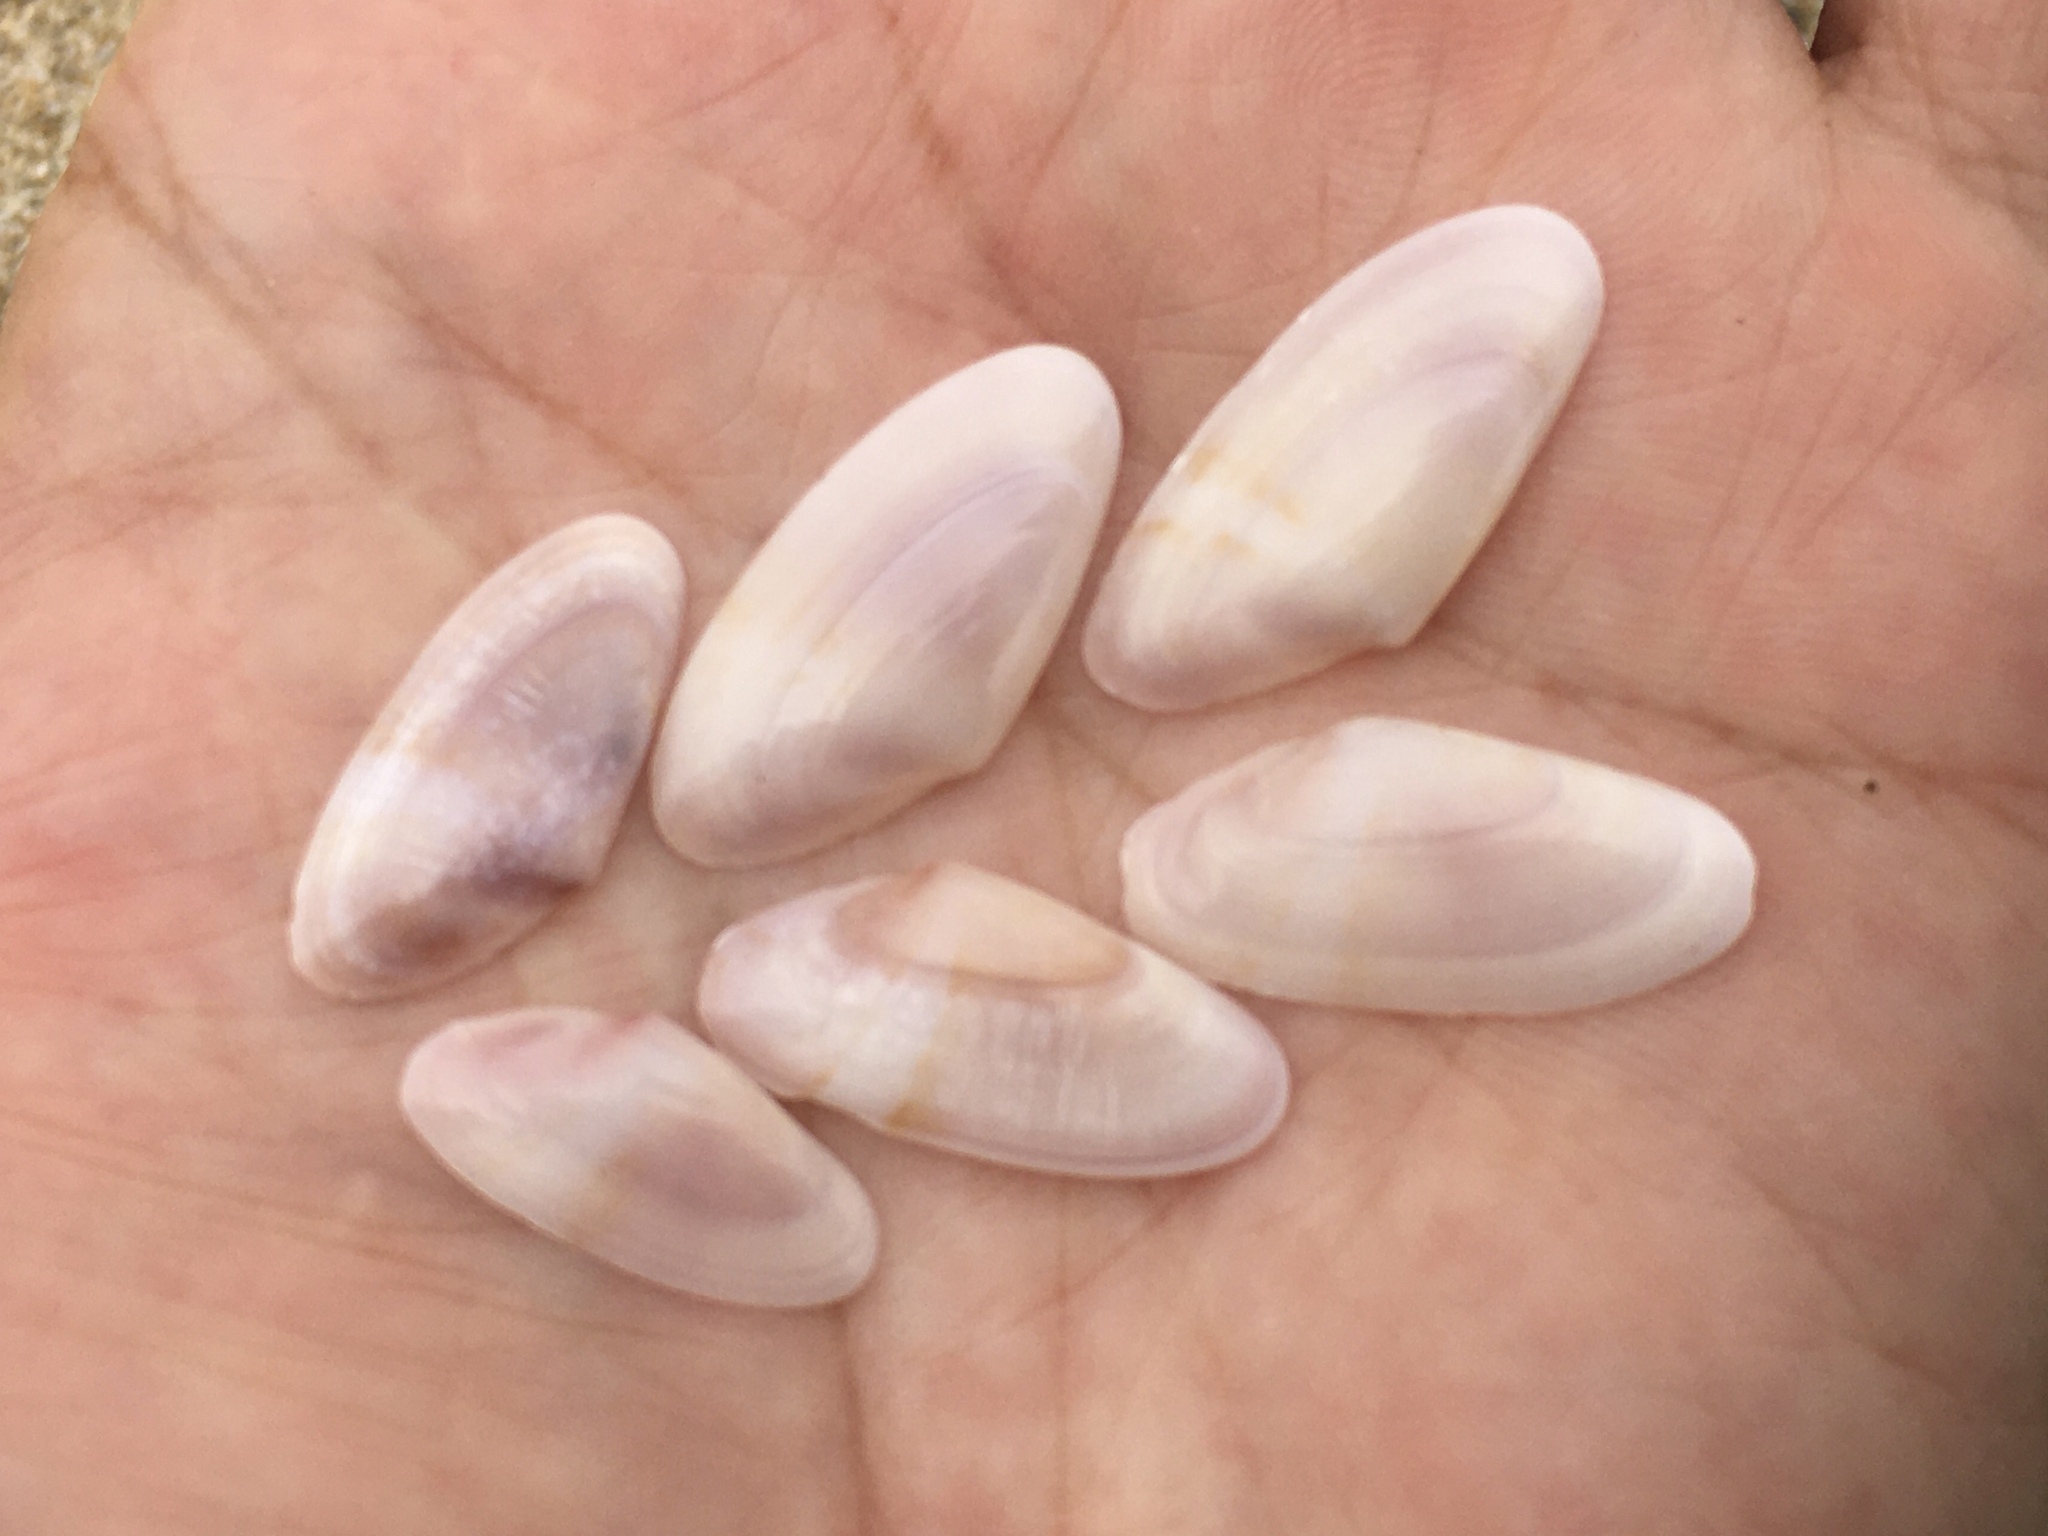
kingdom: Animalia
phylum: Mollusca
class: Bivalvia
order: Cardiida
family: Donacidae
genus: Donax
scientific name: Donax variegatus
